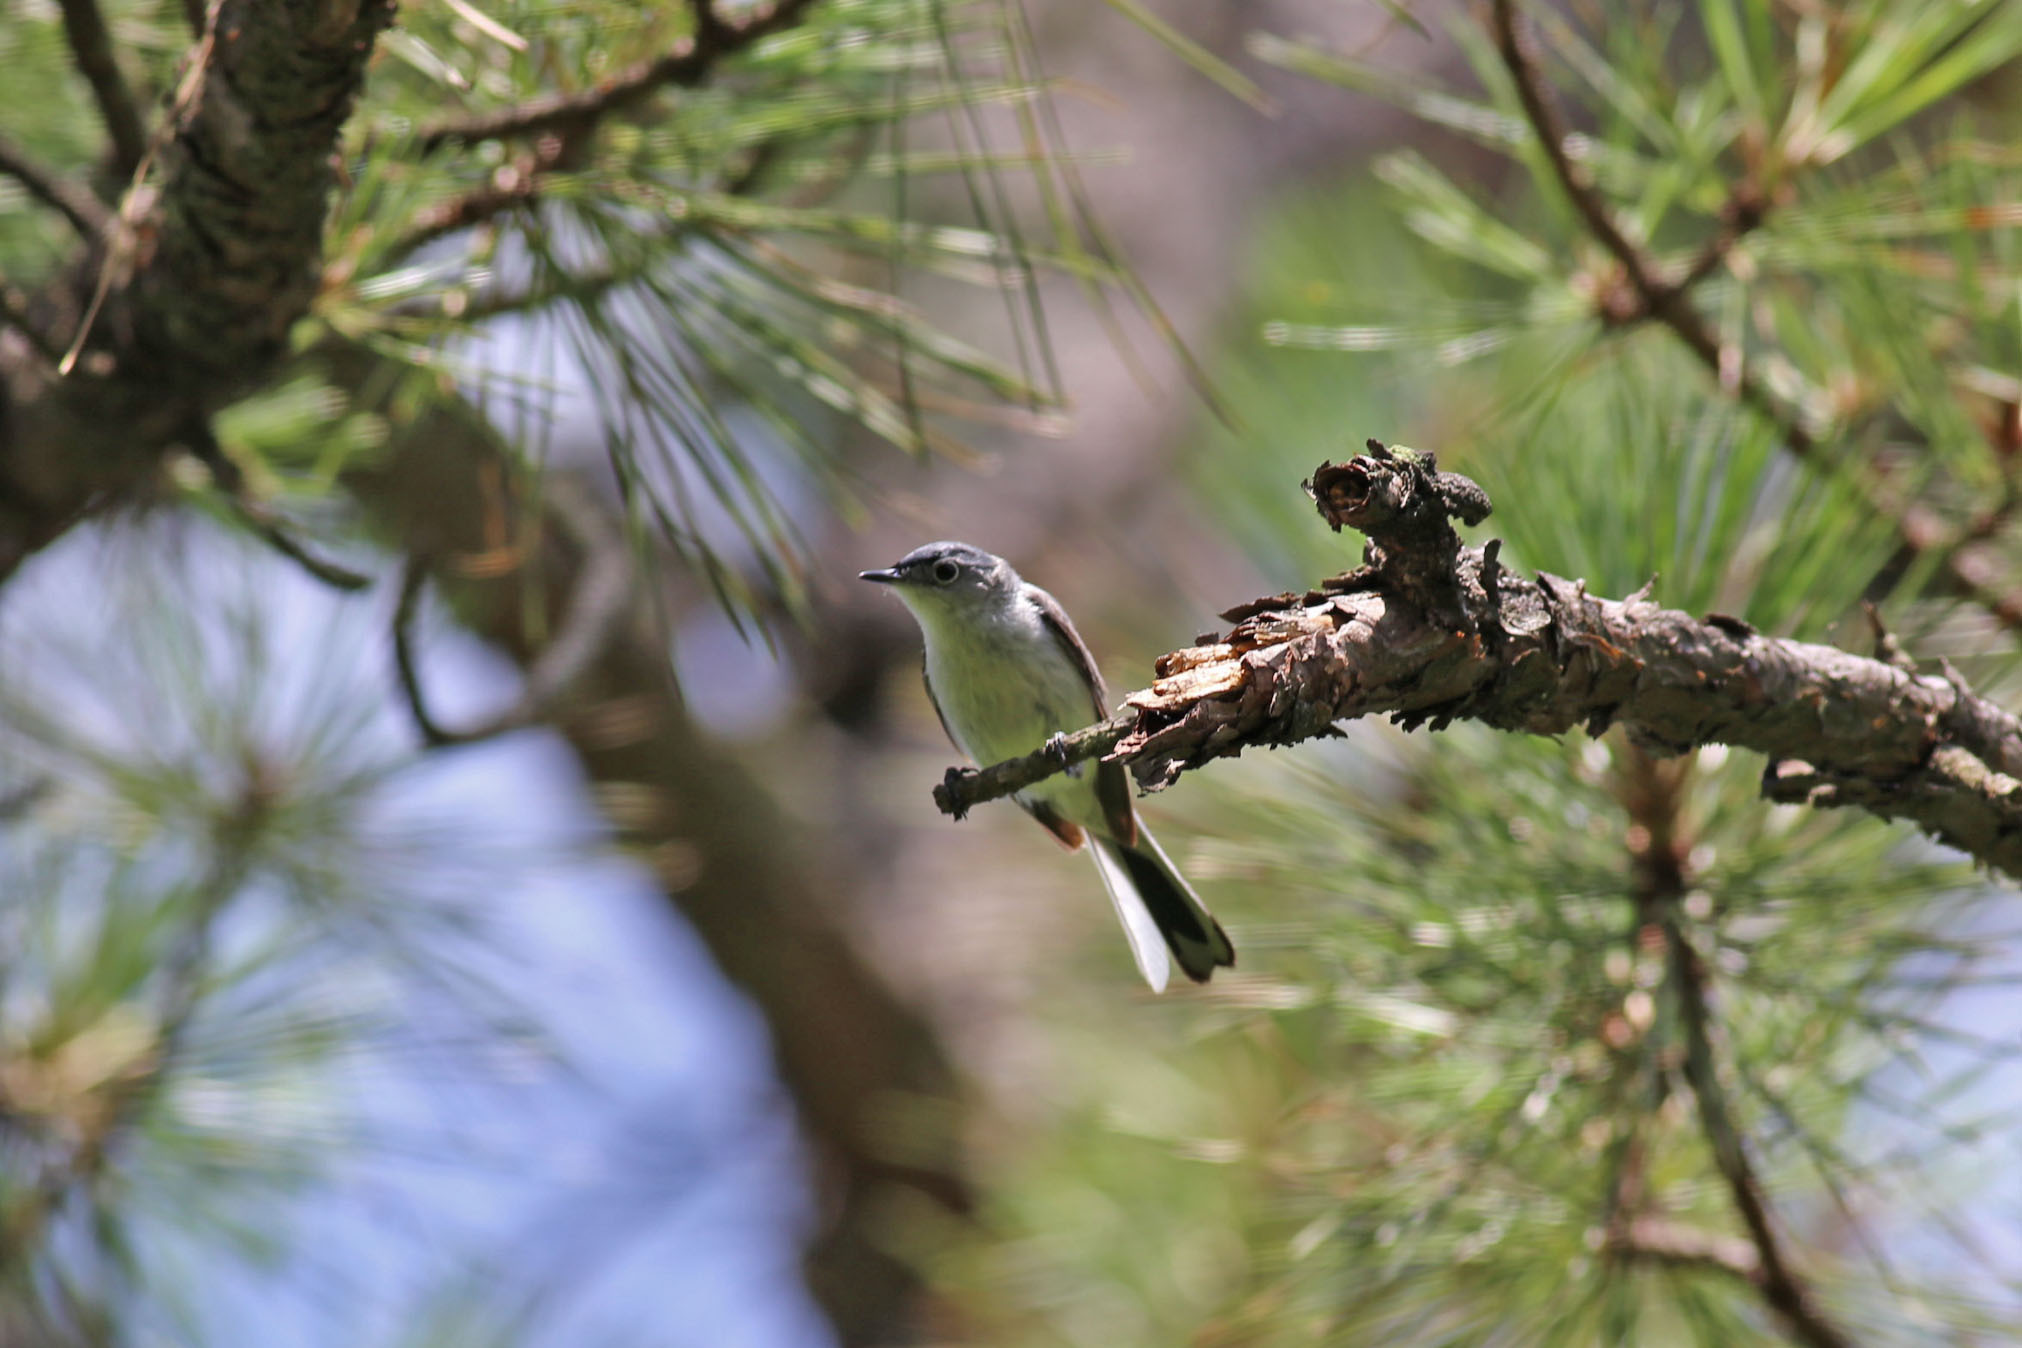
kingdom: Animalia
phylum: Chordata
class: Aves
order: Passeriformes
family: Polioptilidae
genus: Polioptila
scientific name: Polioptila caerulea
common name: Blue-gray gnatcatcher
